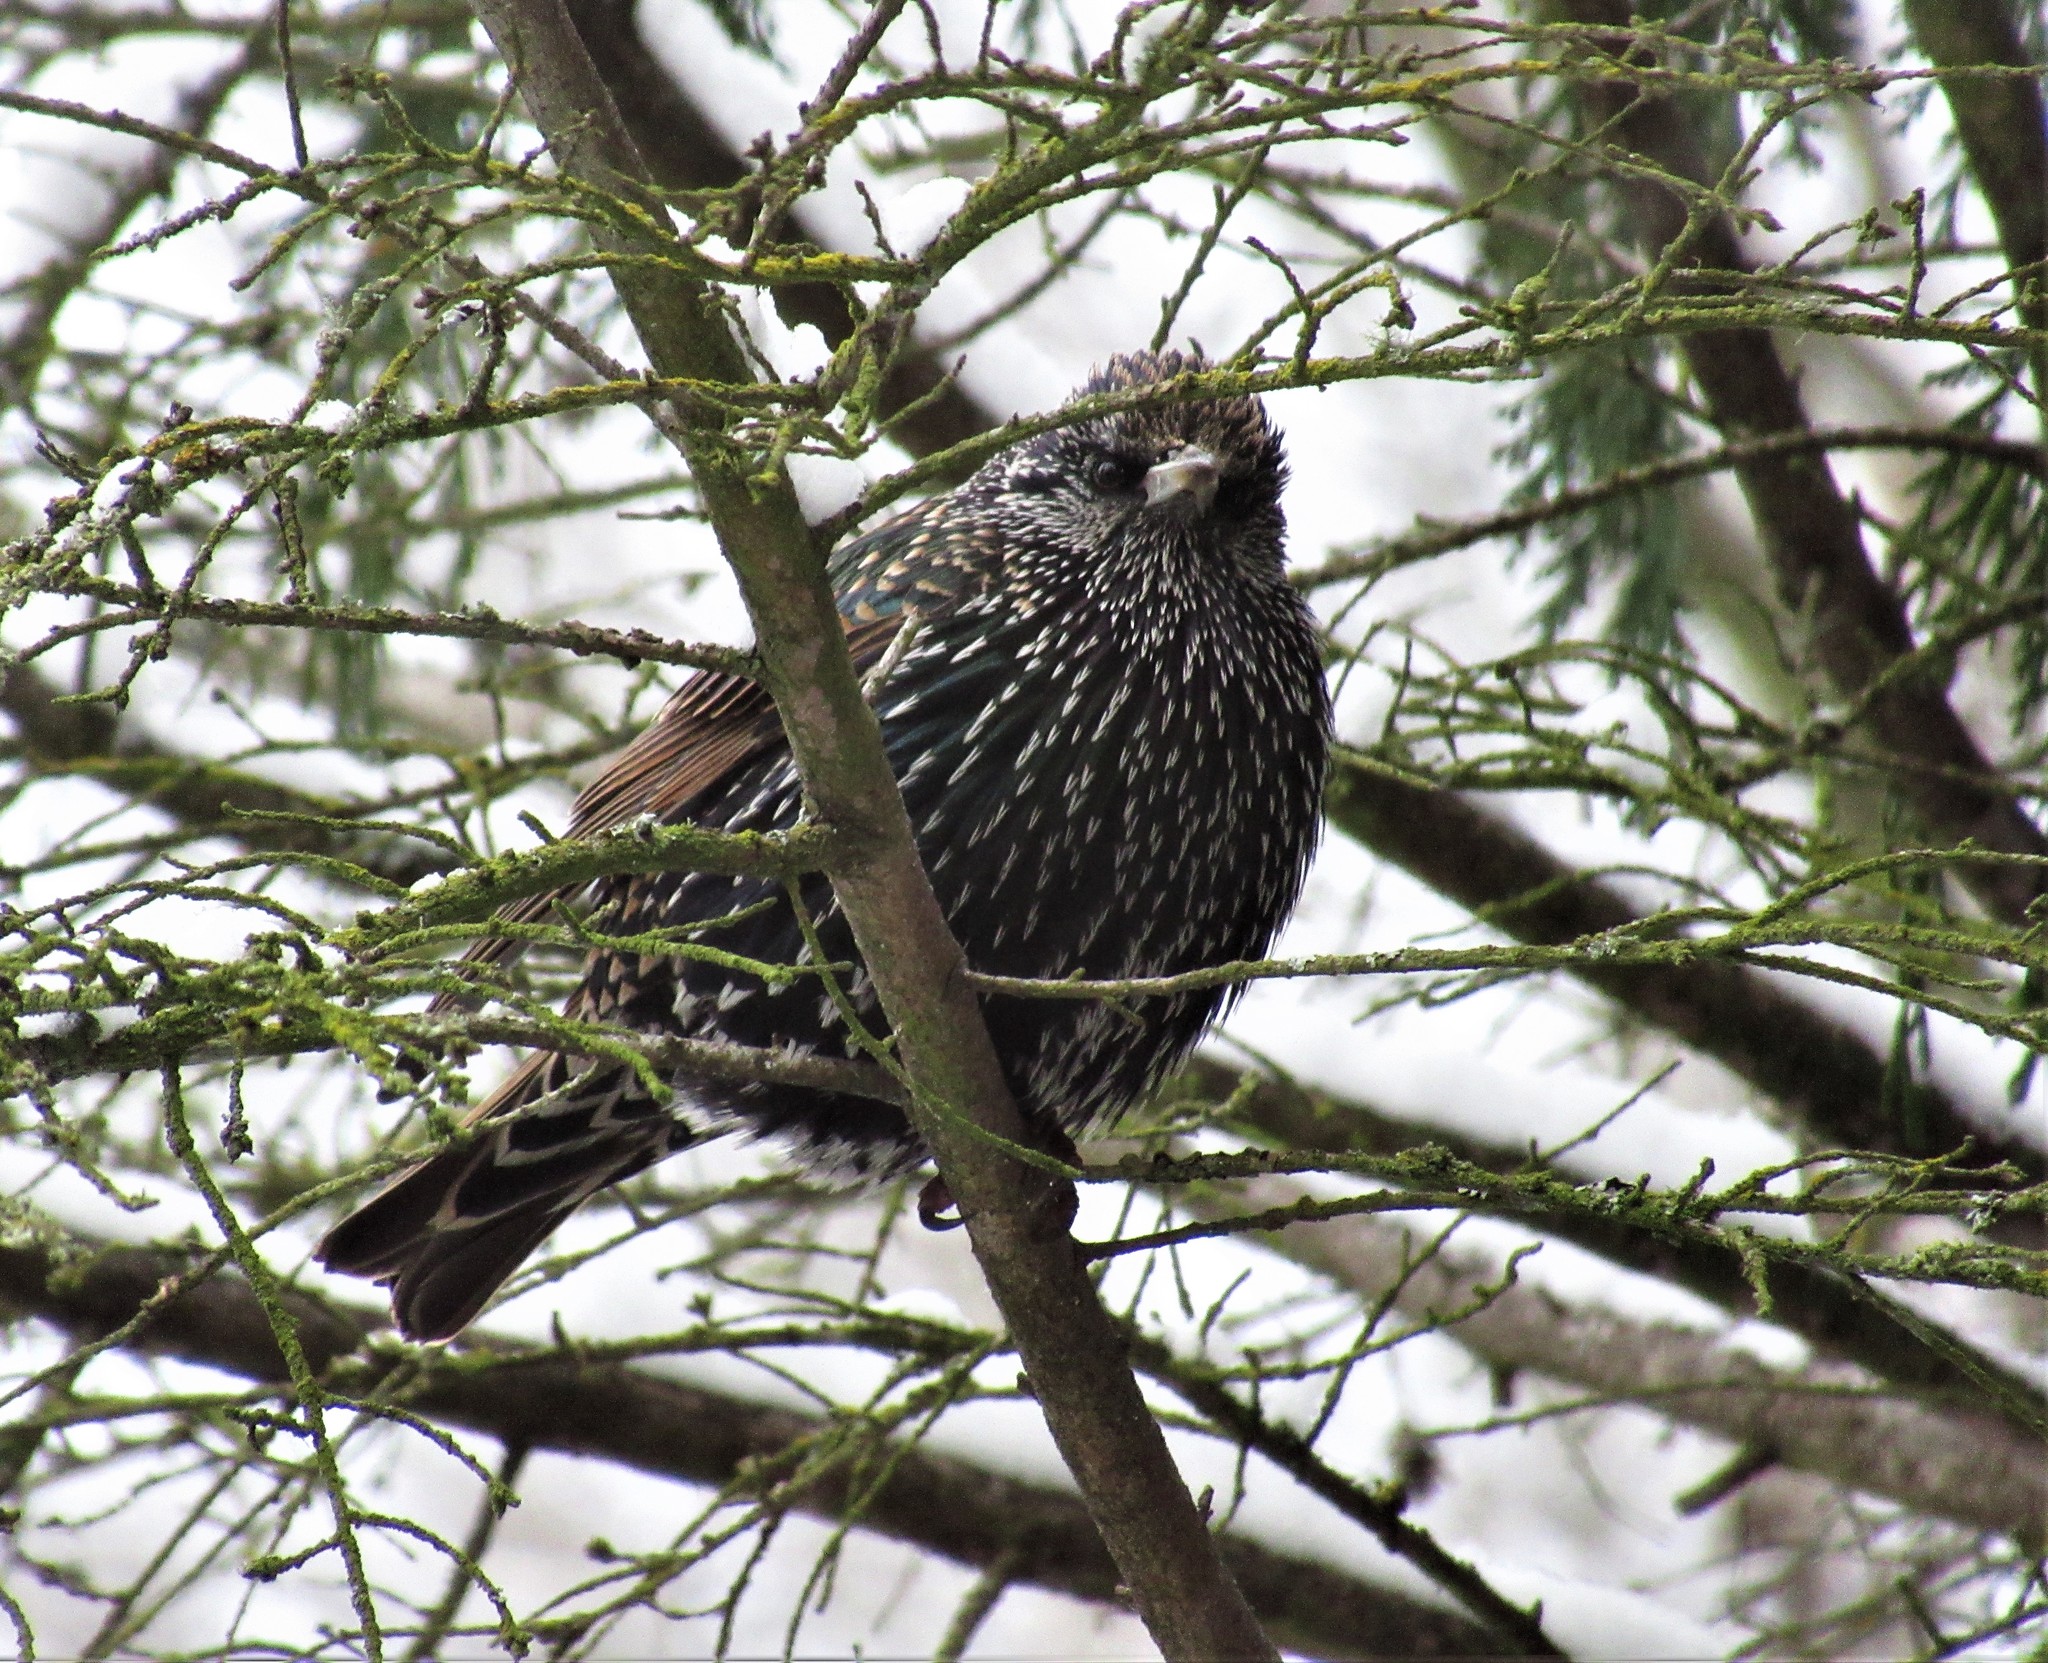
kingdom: Animalia
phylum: Chordata
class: Aves
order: Passeriformes
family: Sturnidae
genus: Sturnus
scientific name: Sturnus vulgaris
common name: Common starling
